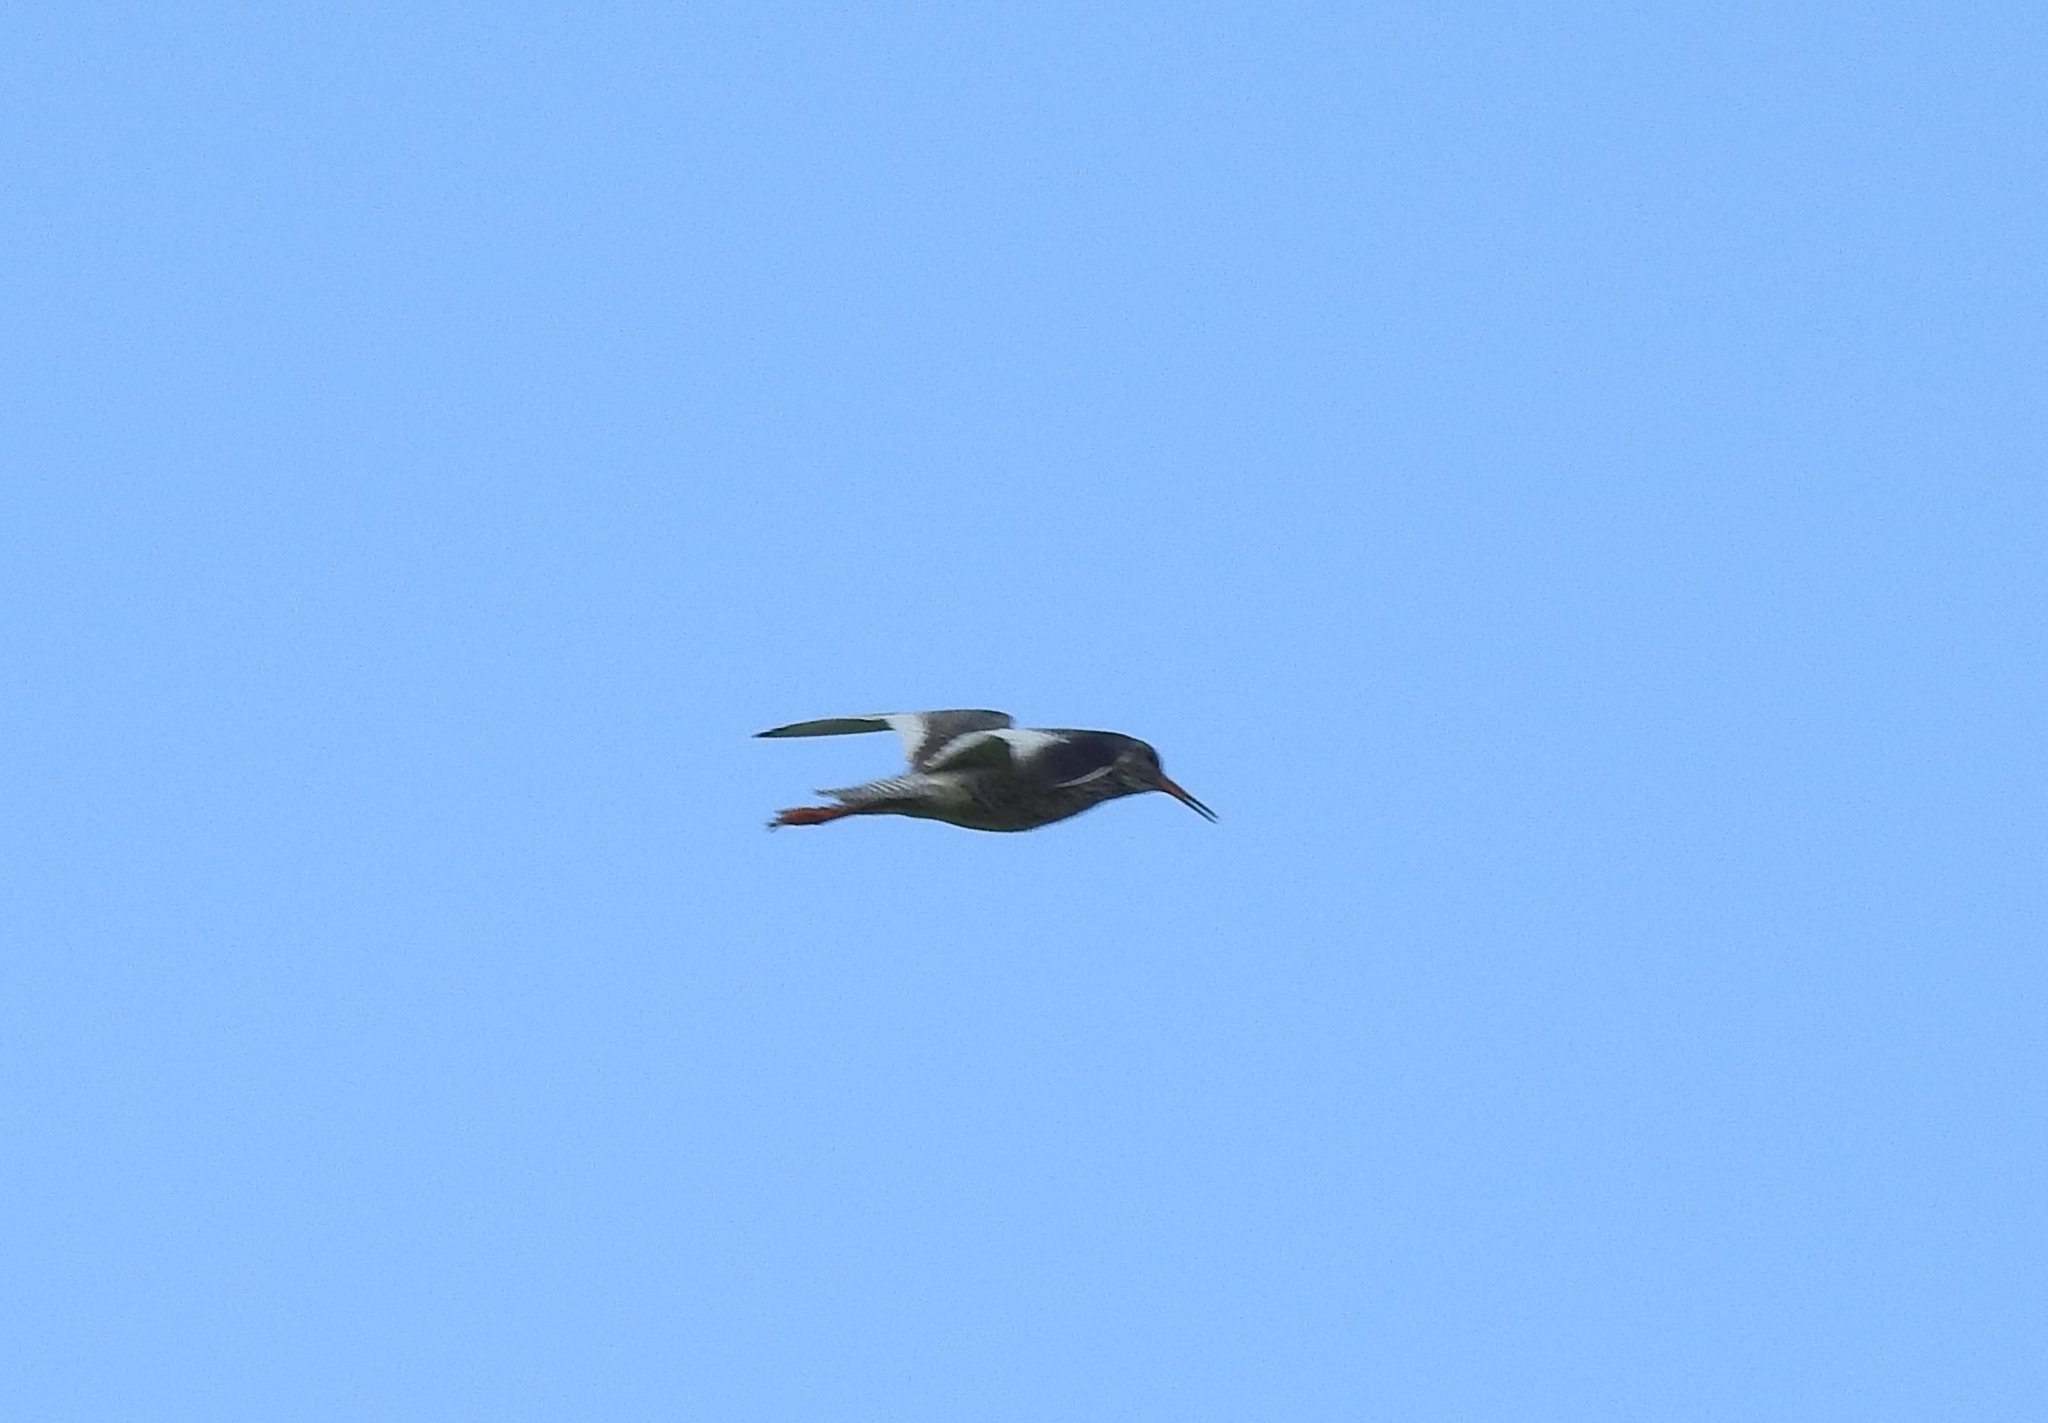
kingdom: Animalia
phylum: Chordata
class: Aves
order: Charadriiformes
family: Scolopacidae
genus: Tringa
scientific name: Tringa totanus
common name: Common redshank
